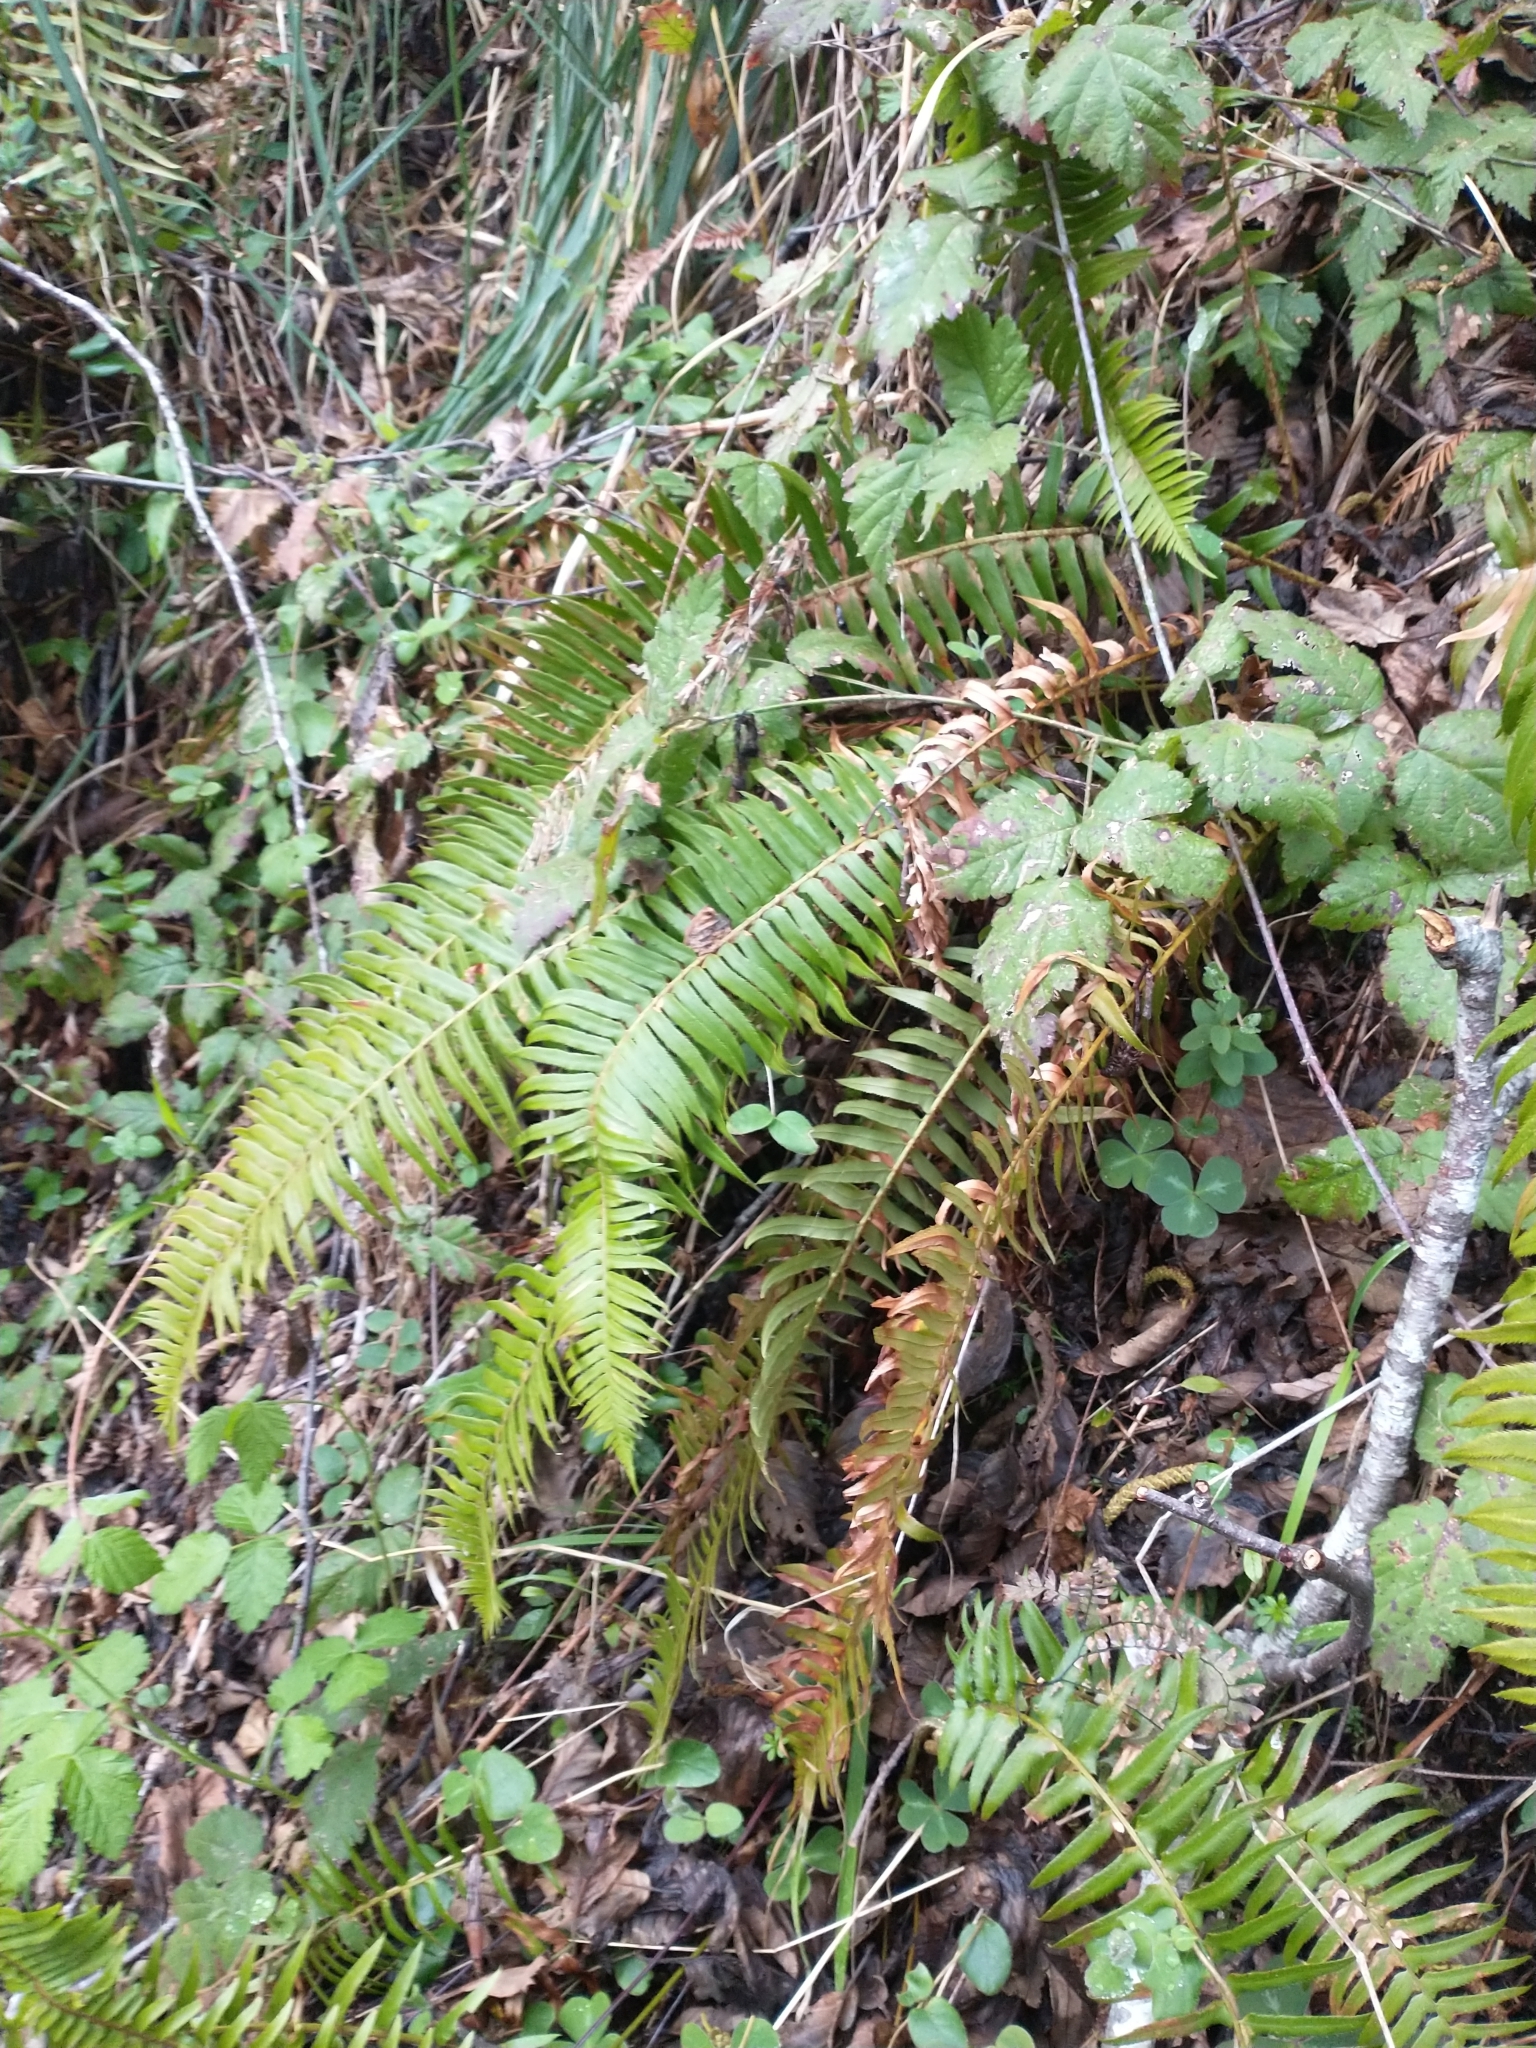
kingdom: Plantae
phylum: Tracheophyta
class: Polypodiopsida
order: Polypodiales
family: Dryopteridaceae
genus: Polystichum
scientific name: Polystichum munitum
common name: Western sword-fern
